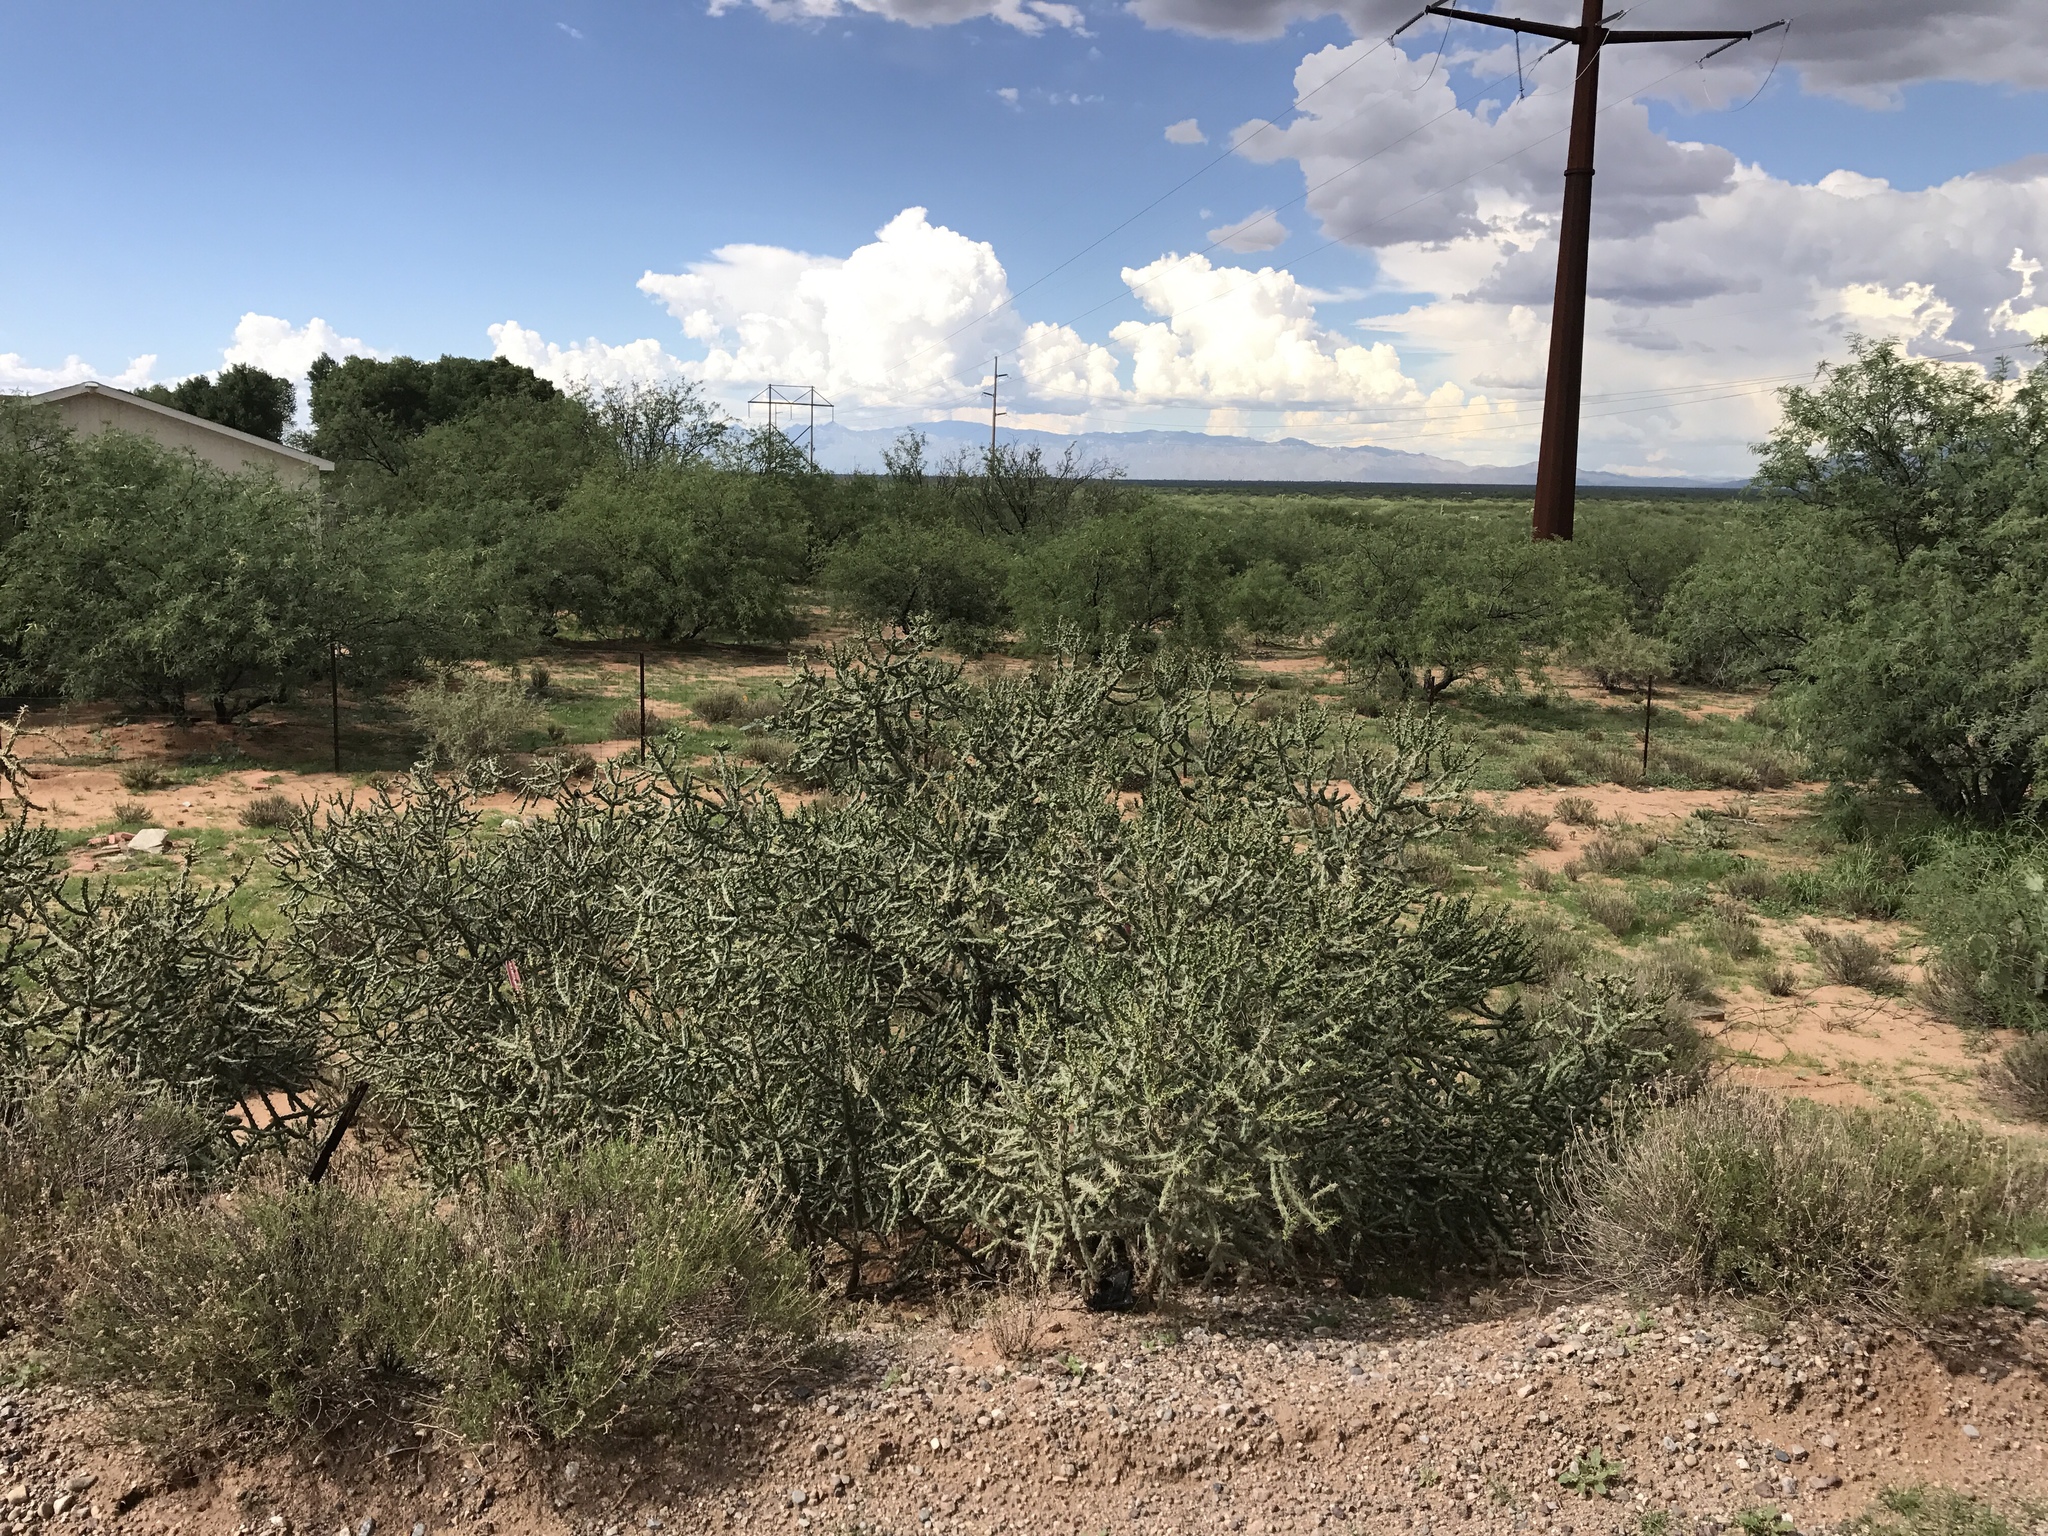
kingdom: Plantae
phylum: Tracheophyta
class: Magnoliopsida
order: Caryophyllales
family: Cactaceae
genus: Cylindropuntia
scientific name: Cylindropuntia arbuscula
